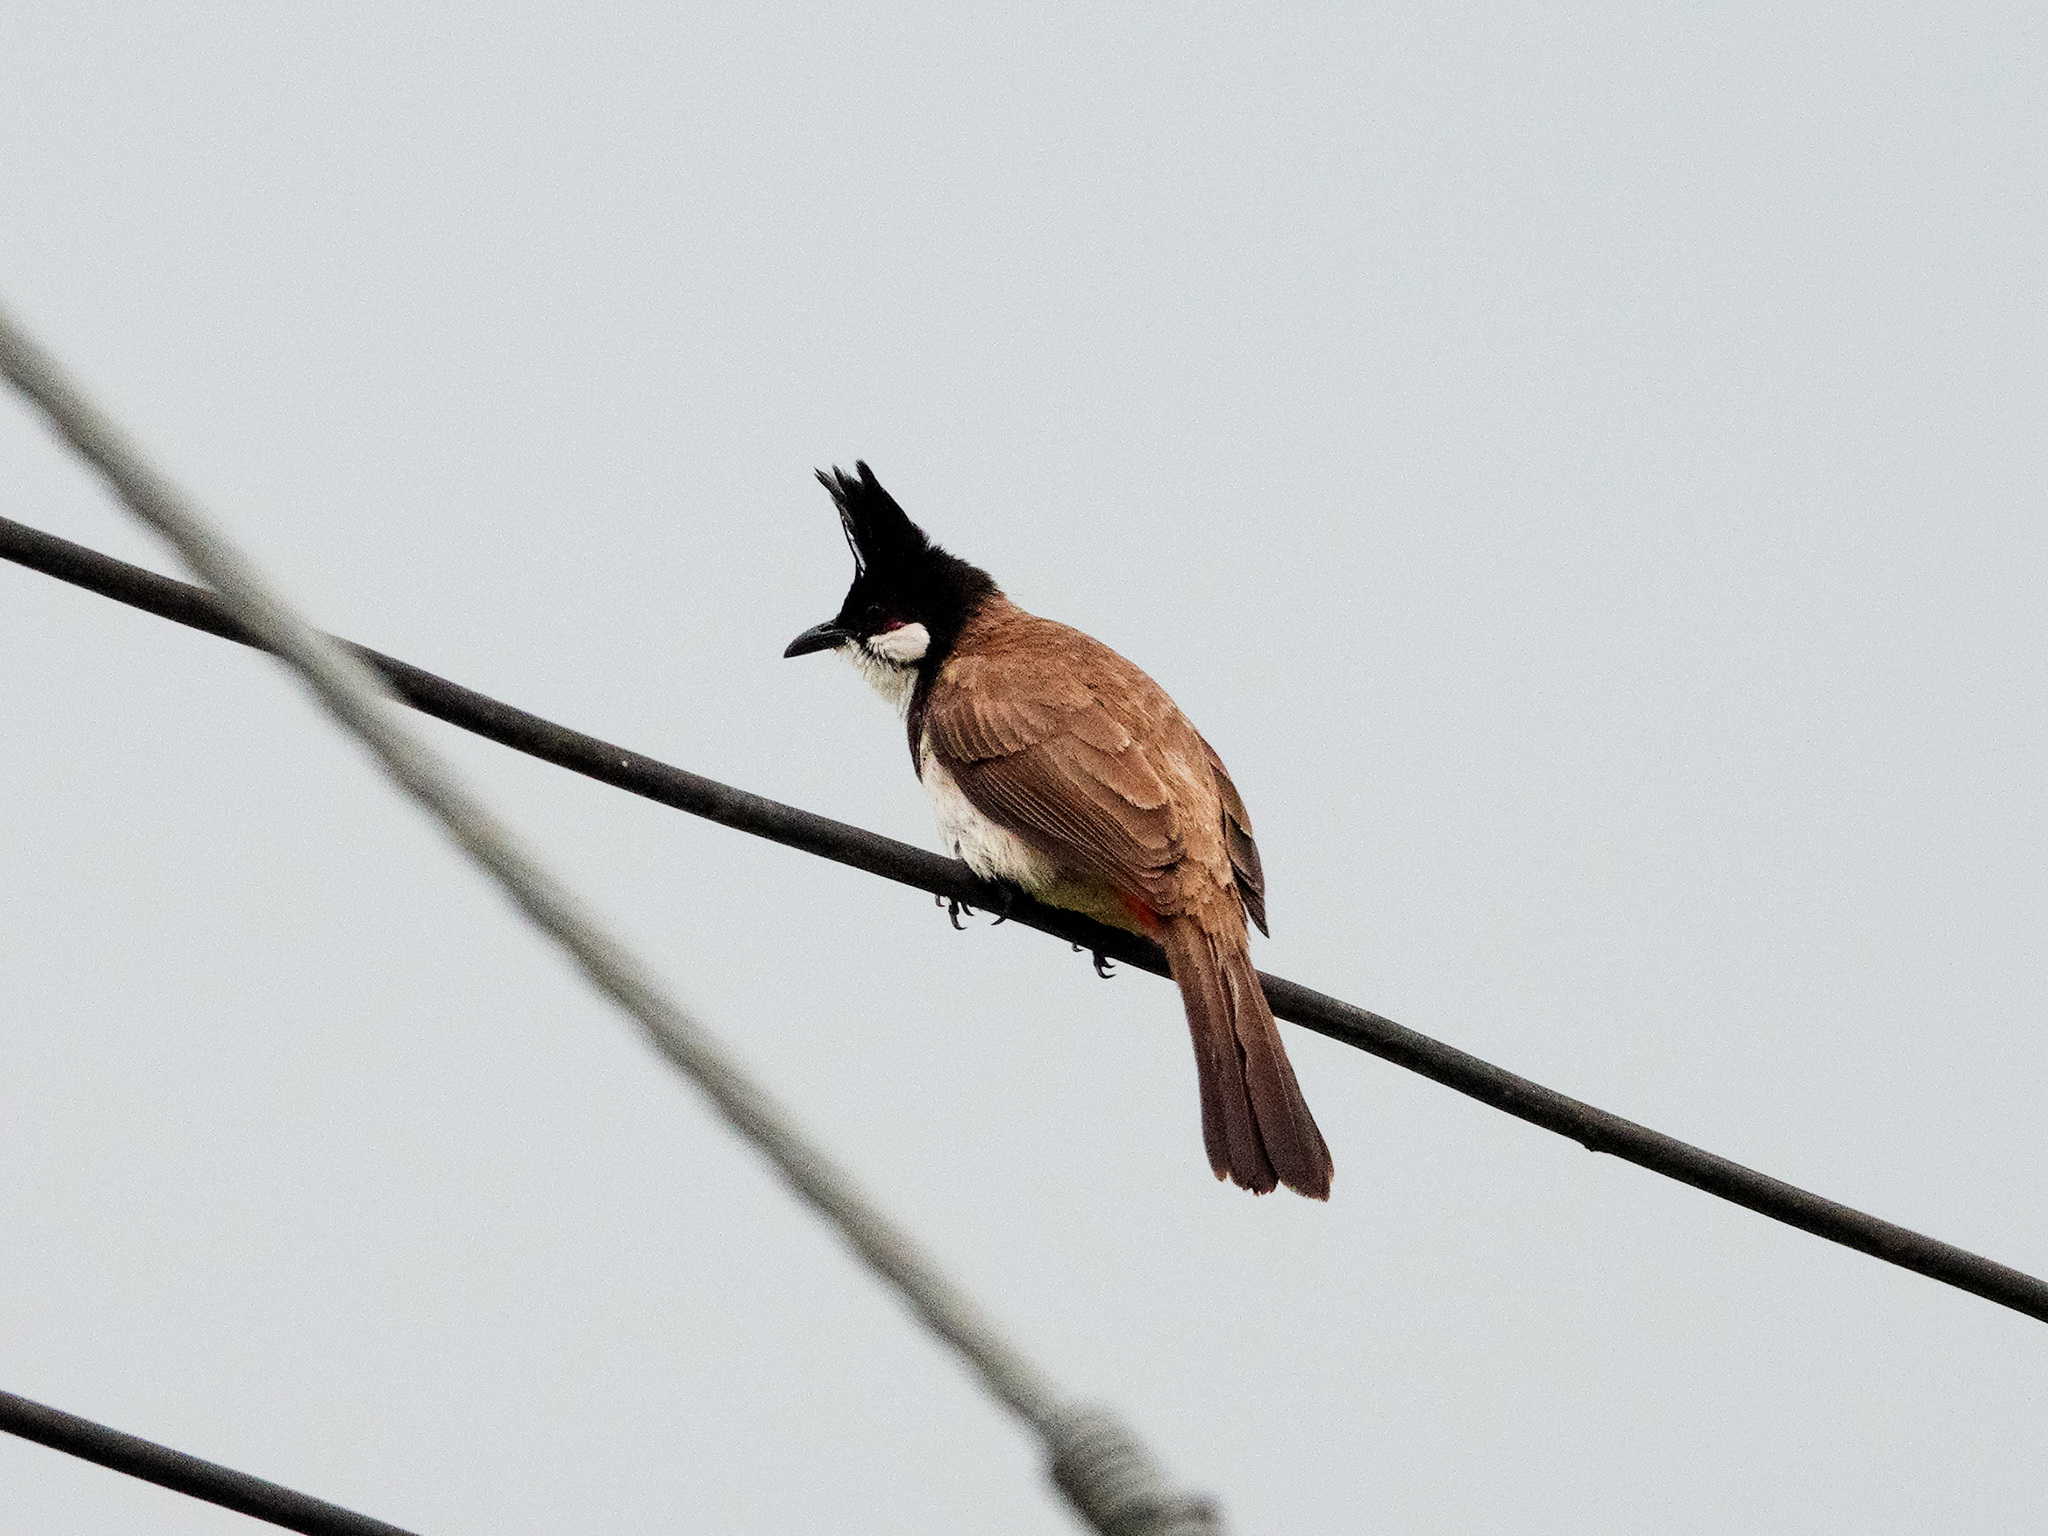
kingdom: Animalia
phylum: Chordata
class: Aves
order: Passeriformes
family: Pycnonotidae
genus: Pycnonotus
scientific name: Pycnonotus jocosus
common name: Red-whiskered bulbul
